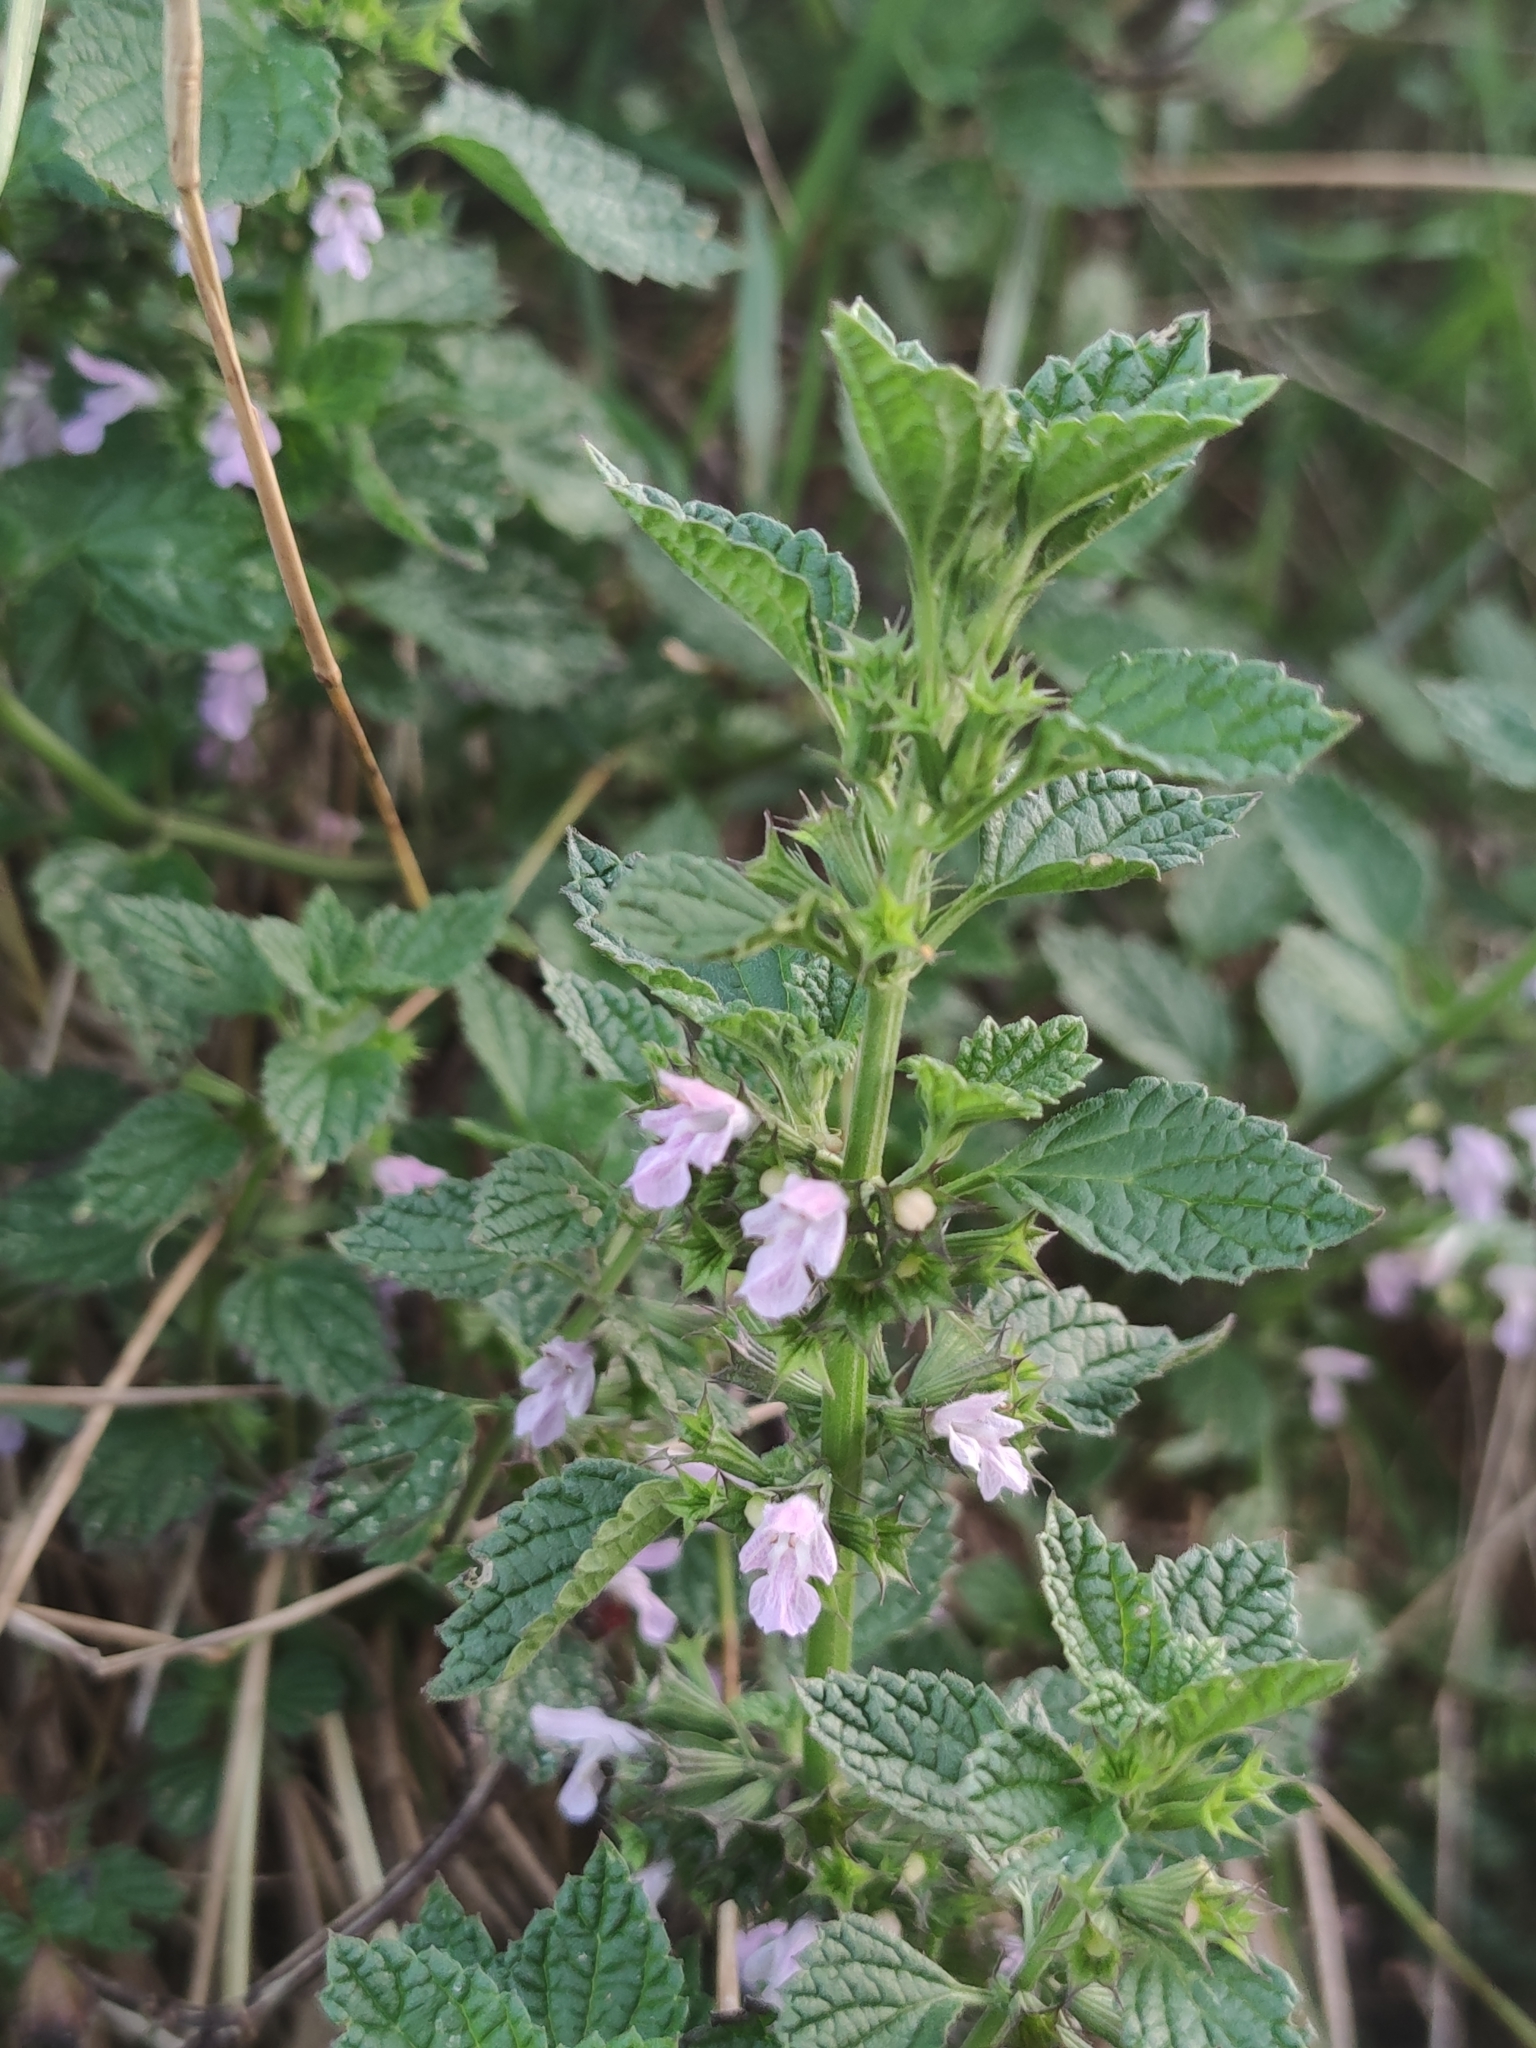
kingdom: Plantae
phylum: Tracheophyta
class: Magnoliopsida
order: Lamiales
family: Lamiaceae
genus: Ballota
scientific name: Ballota nigra
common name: Black horehound
